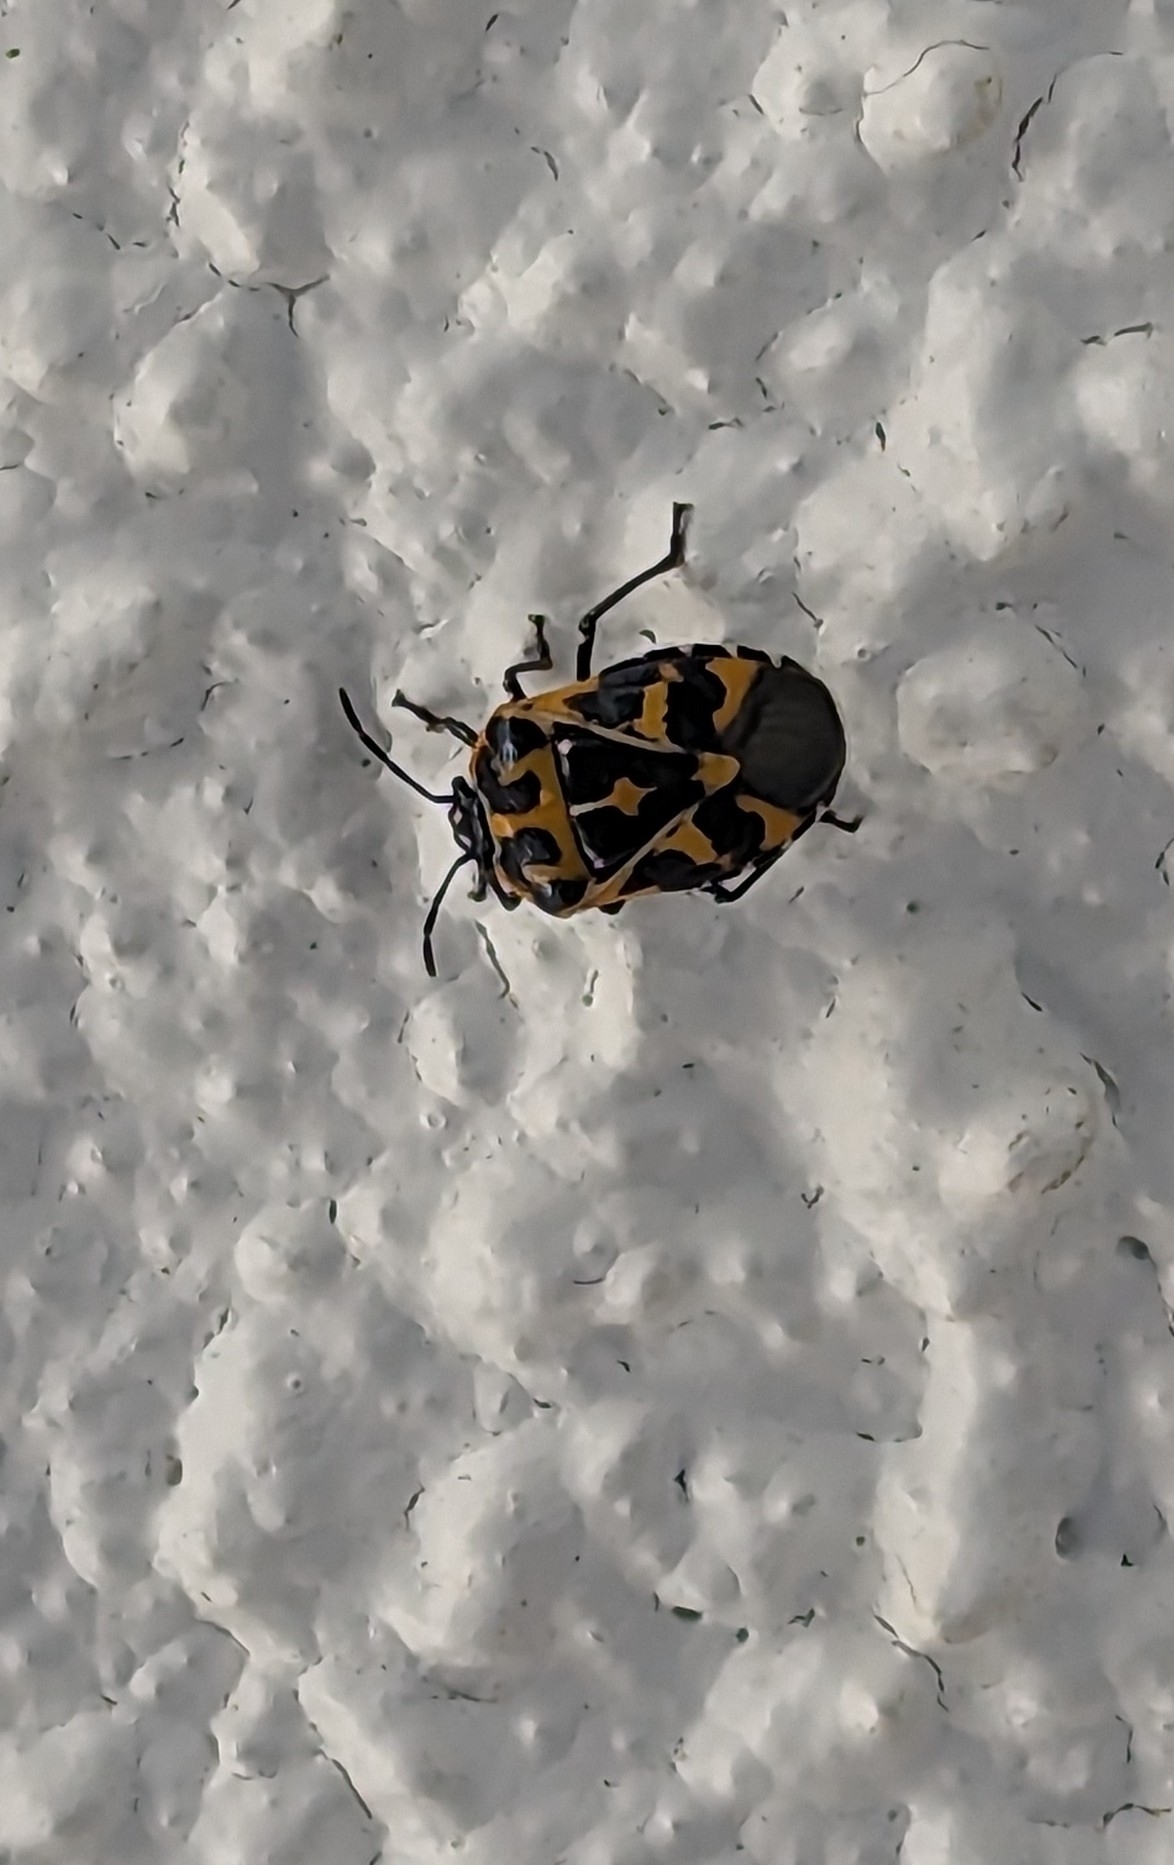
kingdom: Animalia
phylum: Arthropoda
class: Insecta
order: Hemiptera
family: Pentatomidae
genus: Murgantia
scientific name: Murgantia histrionica
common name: Harlequin bug
